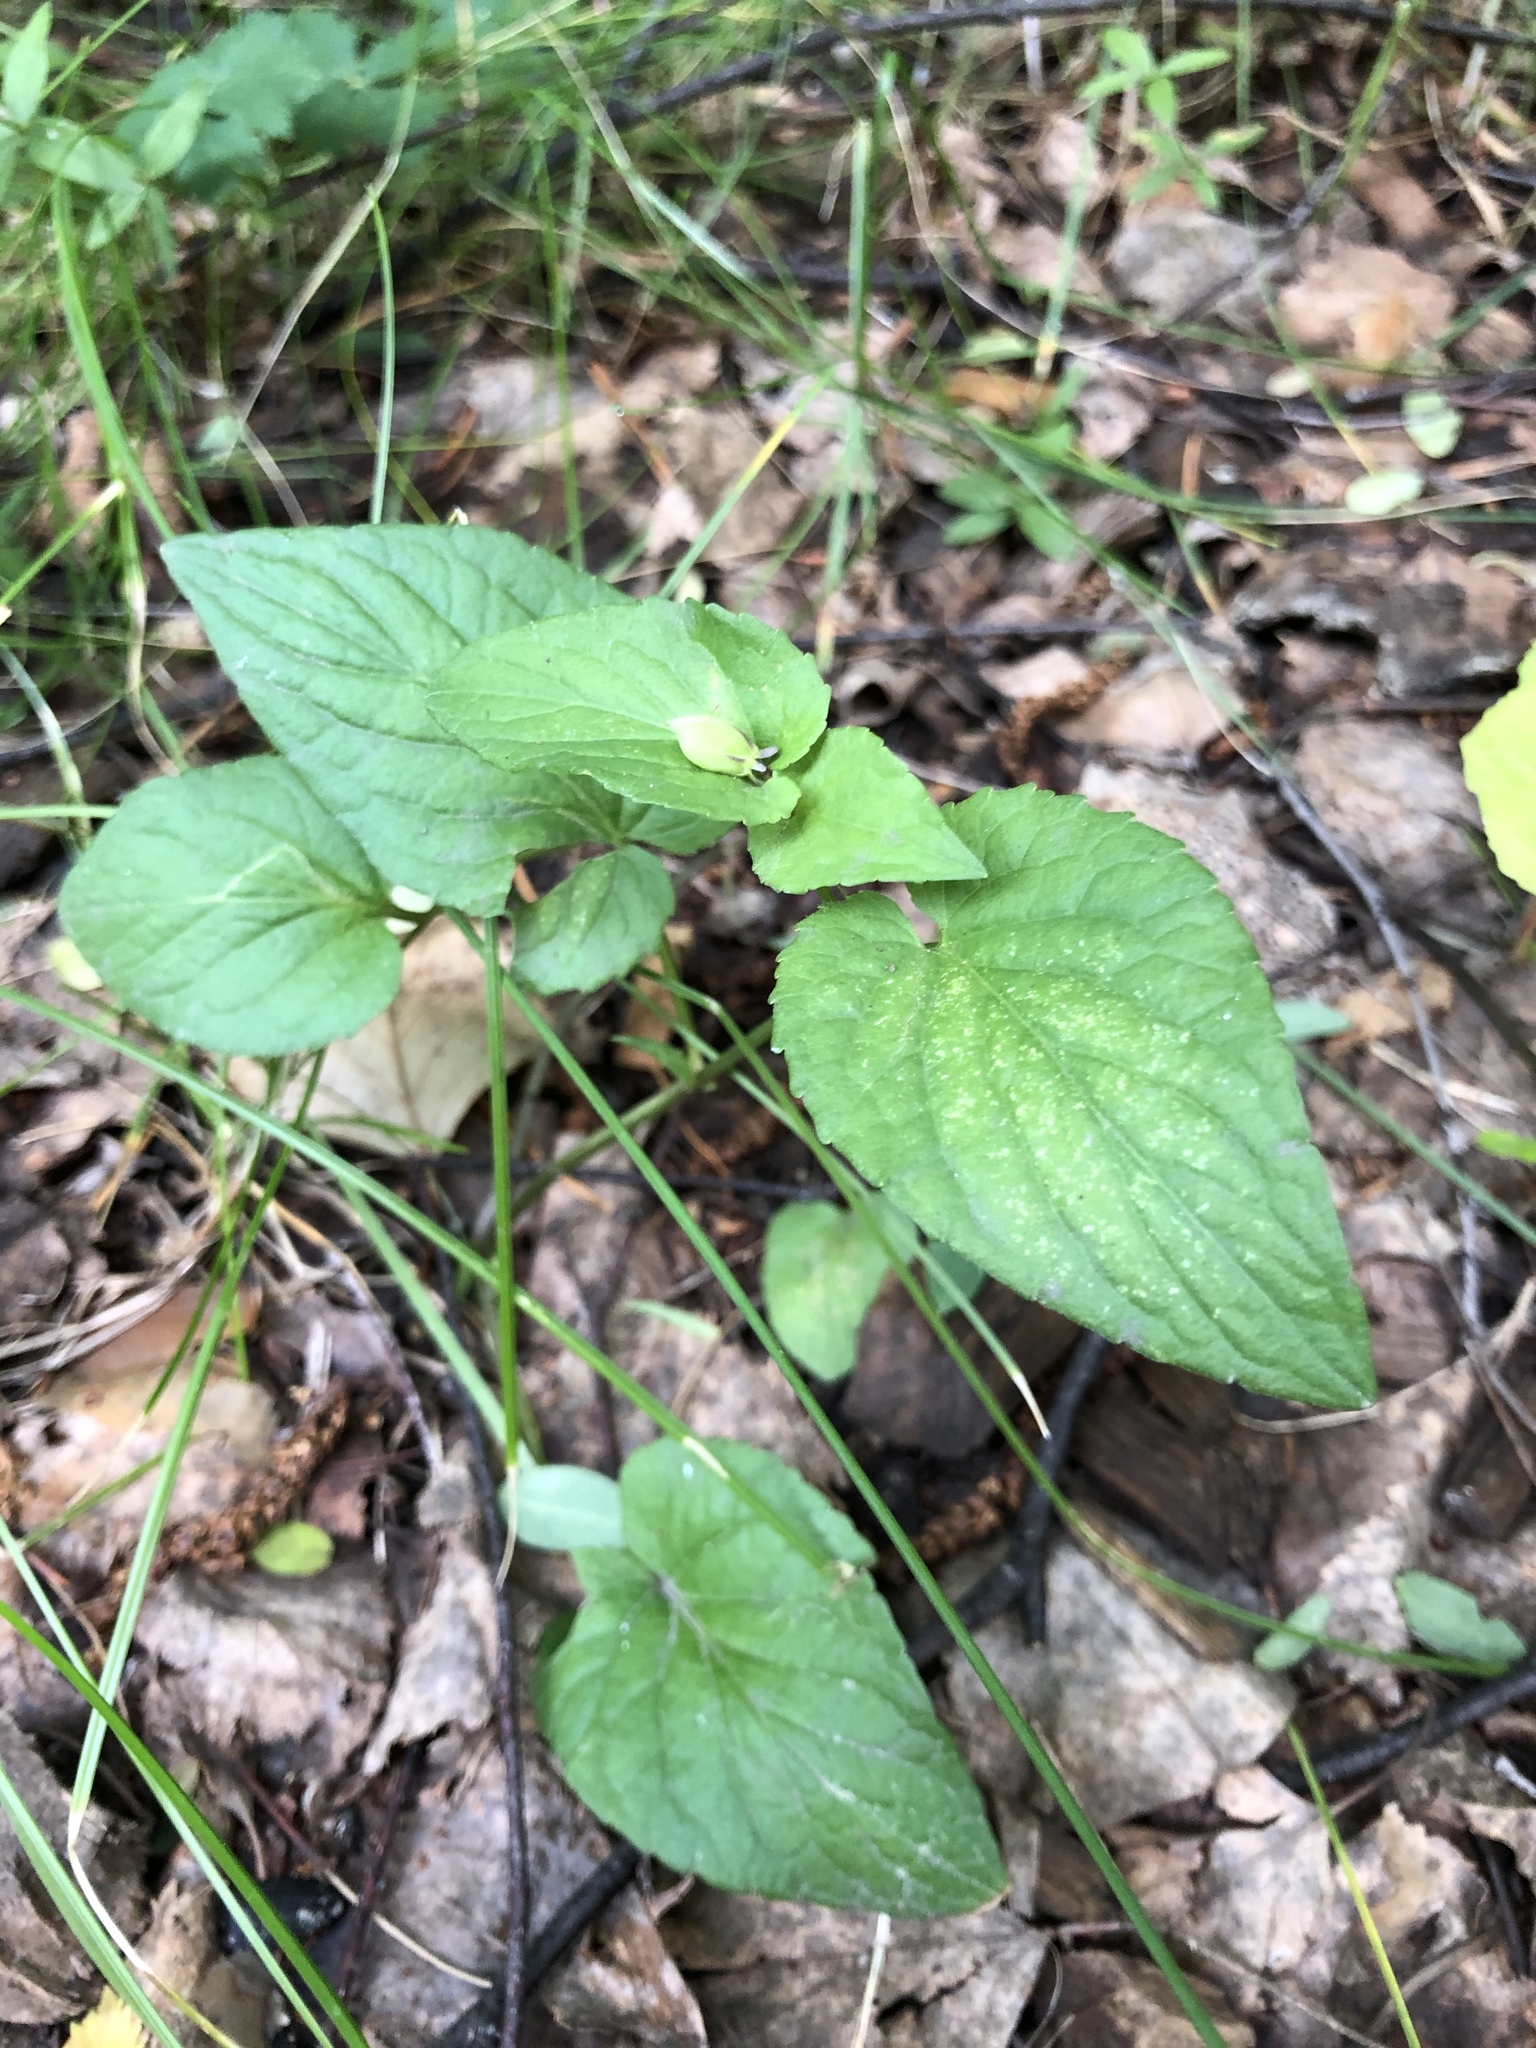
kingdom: Plantae
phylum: Tracheophyta
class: Magnoliopsida
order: Malpighiales
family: Violaceae
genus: Viola
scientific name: Viola canina
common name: Heath dog-violet
